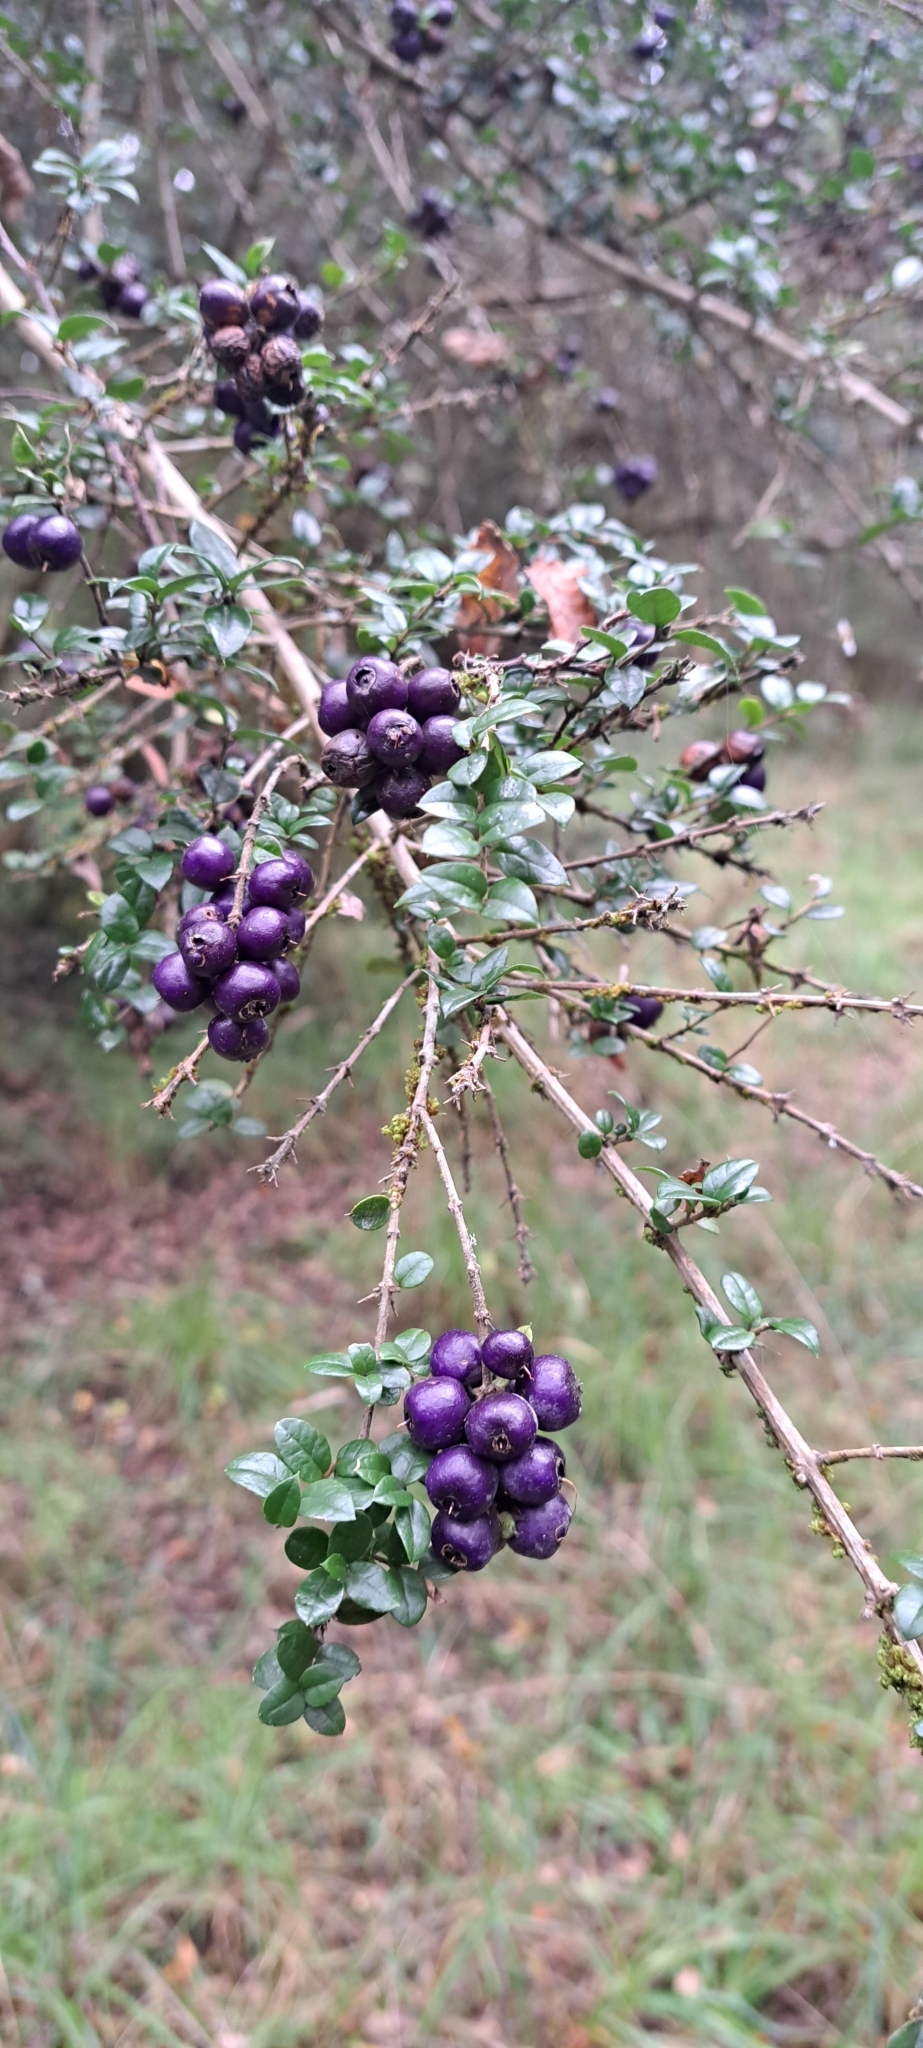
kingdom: Plantae
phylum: Tracheophyta
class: Magnoliopsida
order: Lamiales
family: Verbenaceae
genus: Rhaphithamnus
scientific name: Rhaphithamnus spinosus
